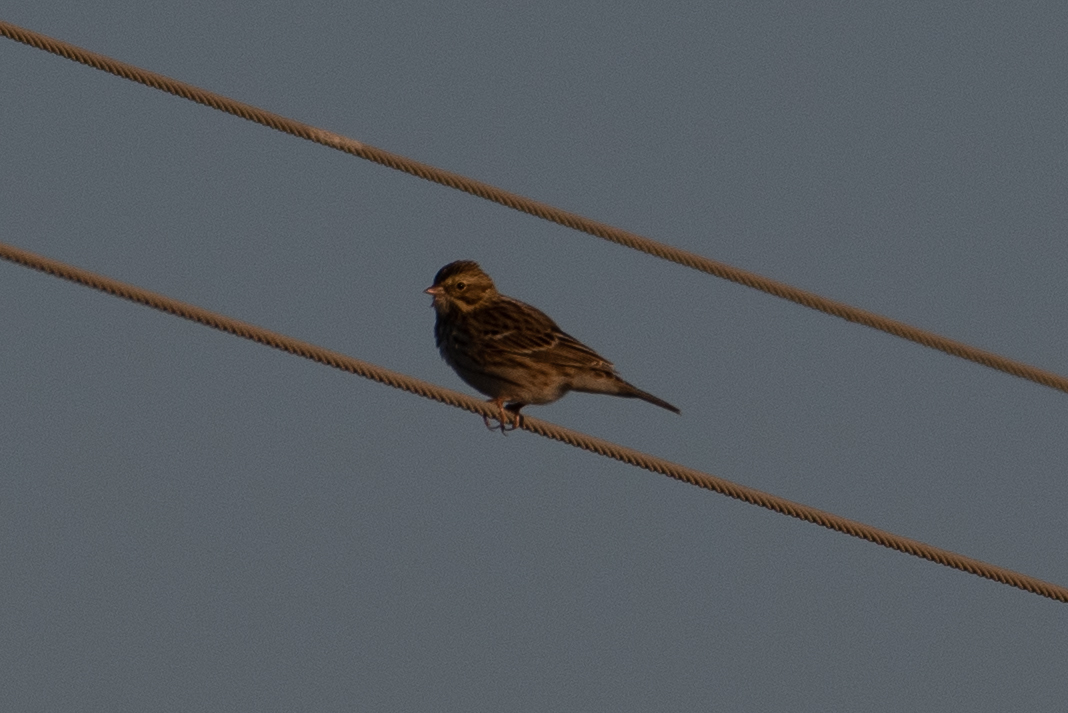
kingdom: Animalia
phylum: Chordata
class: Aves
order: Passeriformes
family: Passerellidae
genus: Passerculus
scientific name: Passerculus sandwichensis
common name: Savannah sparrow
